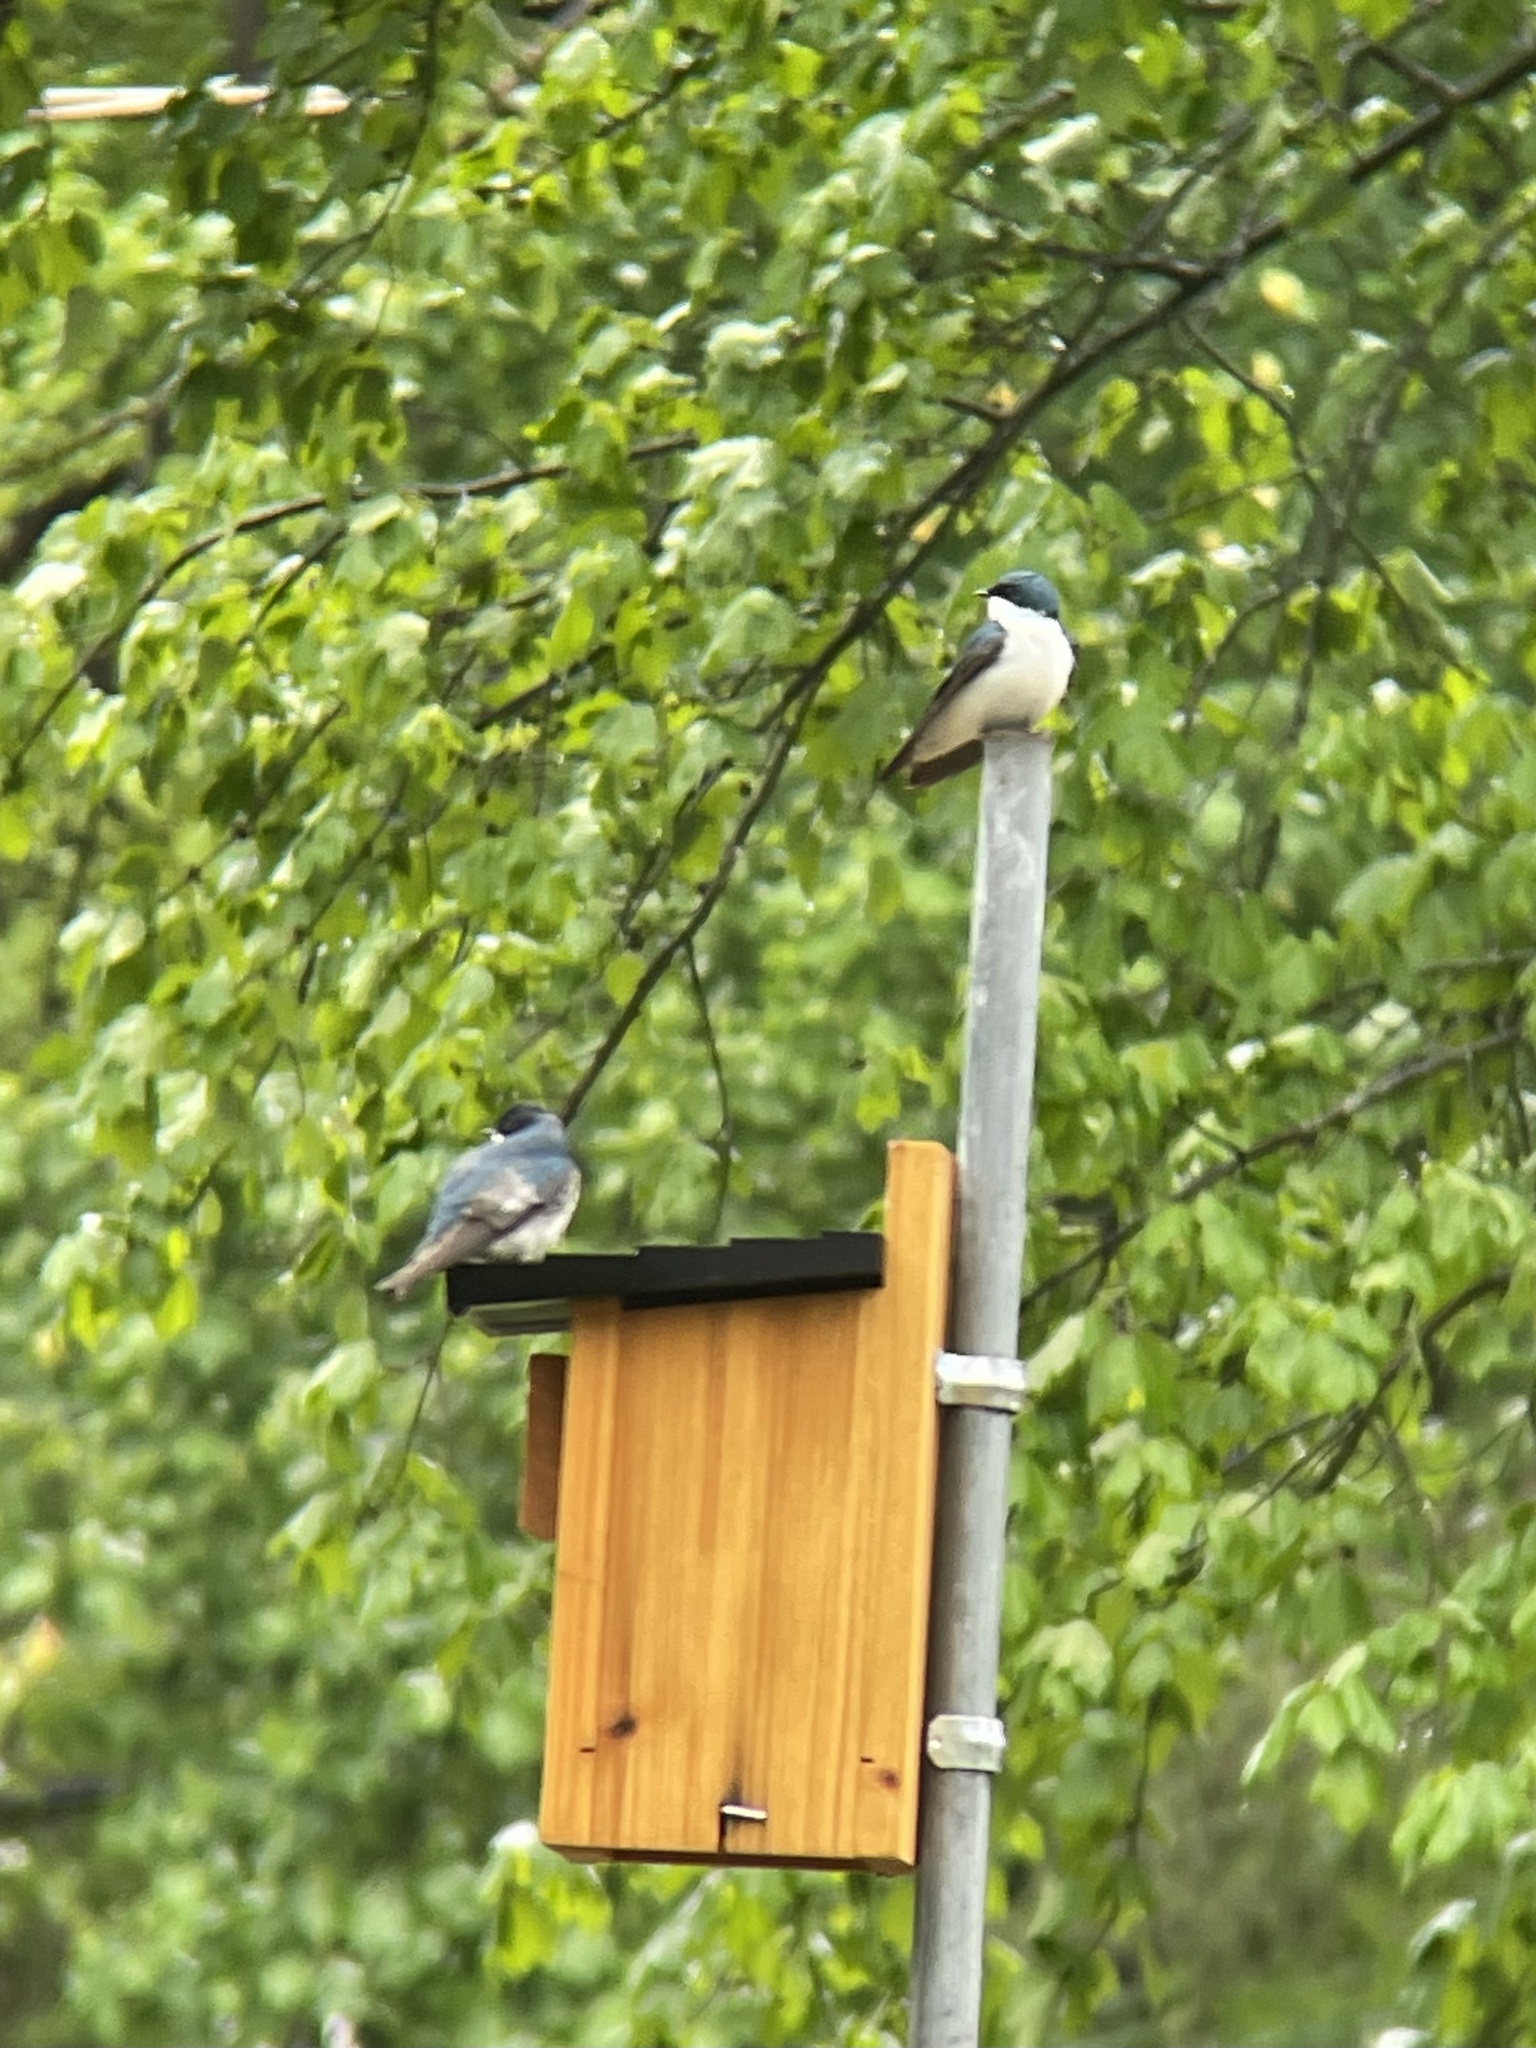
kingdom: Animalia
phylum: Chordata
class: Aves
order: Passeriformes
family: Hirundinidae
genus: Tachycineta
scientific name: Tachycineta bicolor
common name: Tree swallow
